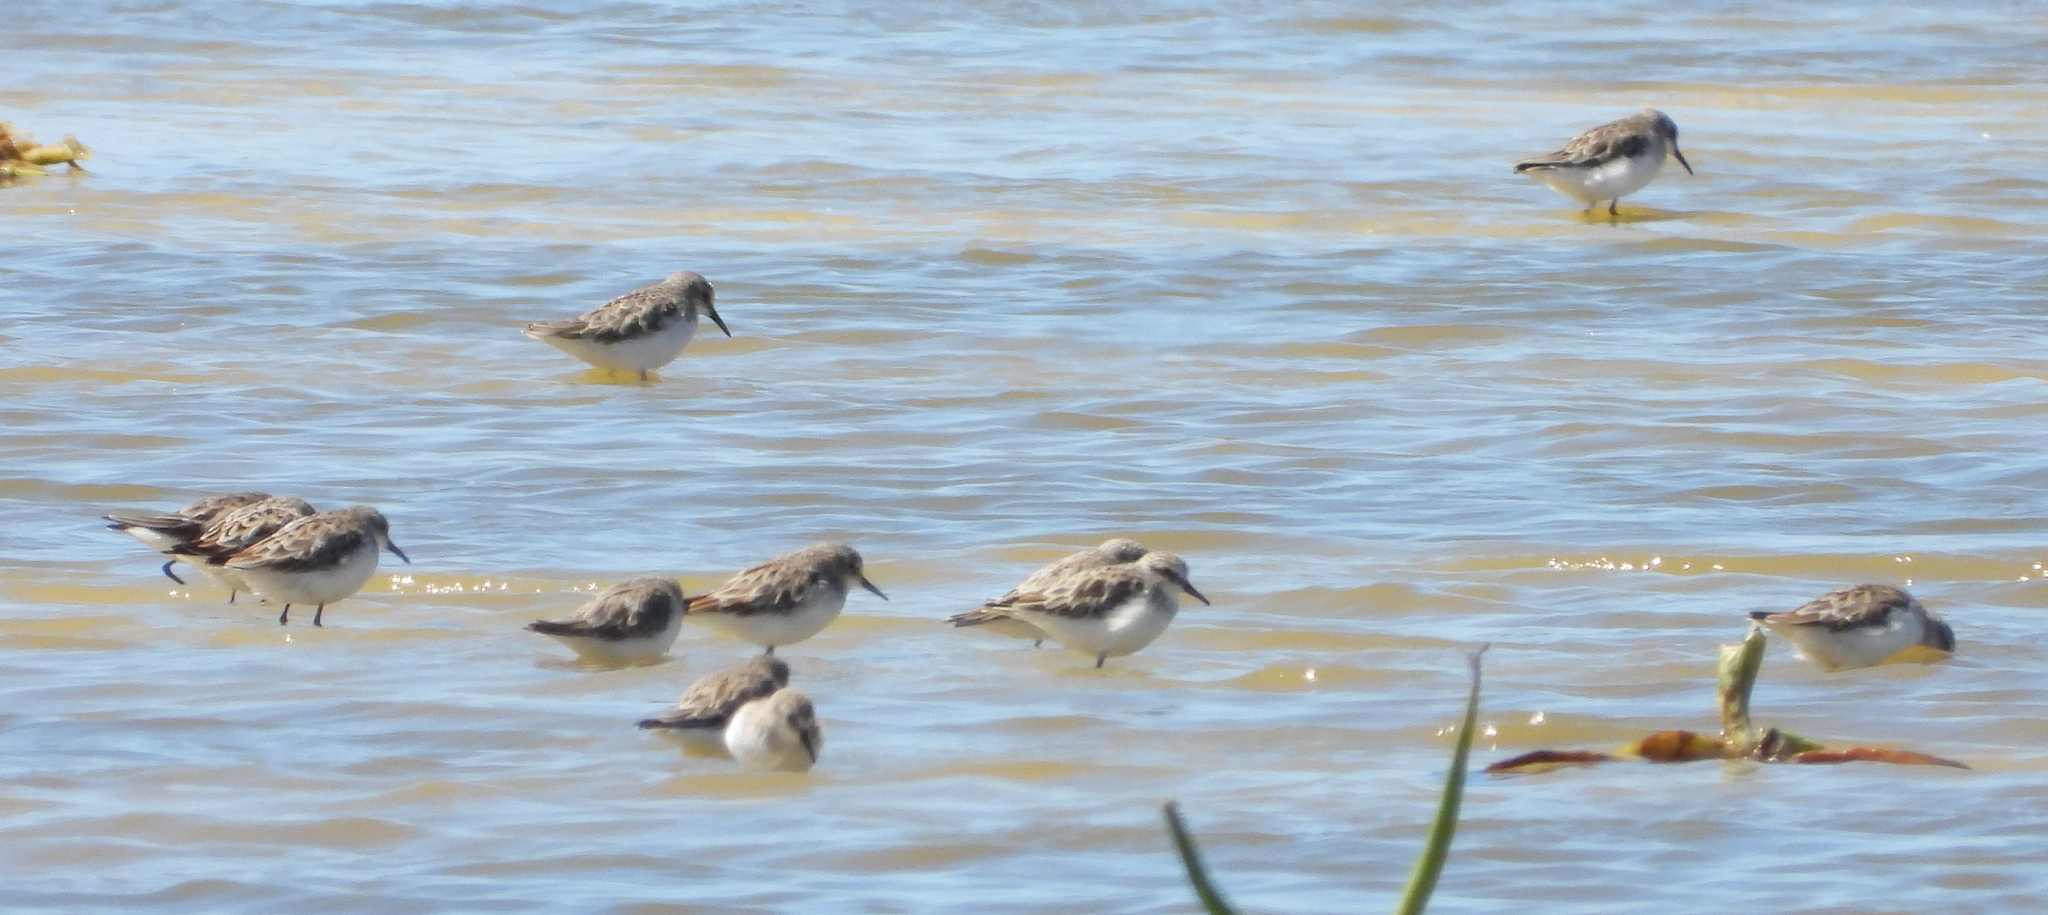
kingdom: Animalia
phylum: Chordata
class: Aves
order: Charadriiformes
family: Scolopacidae
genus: Calidris
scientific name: Calidris minuta
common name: Little stint
